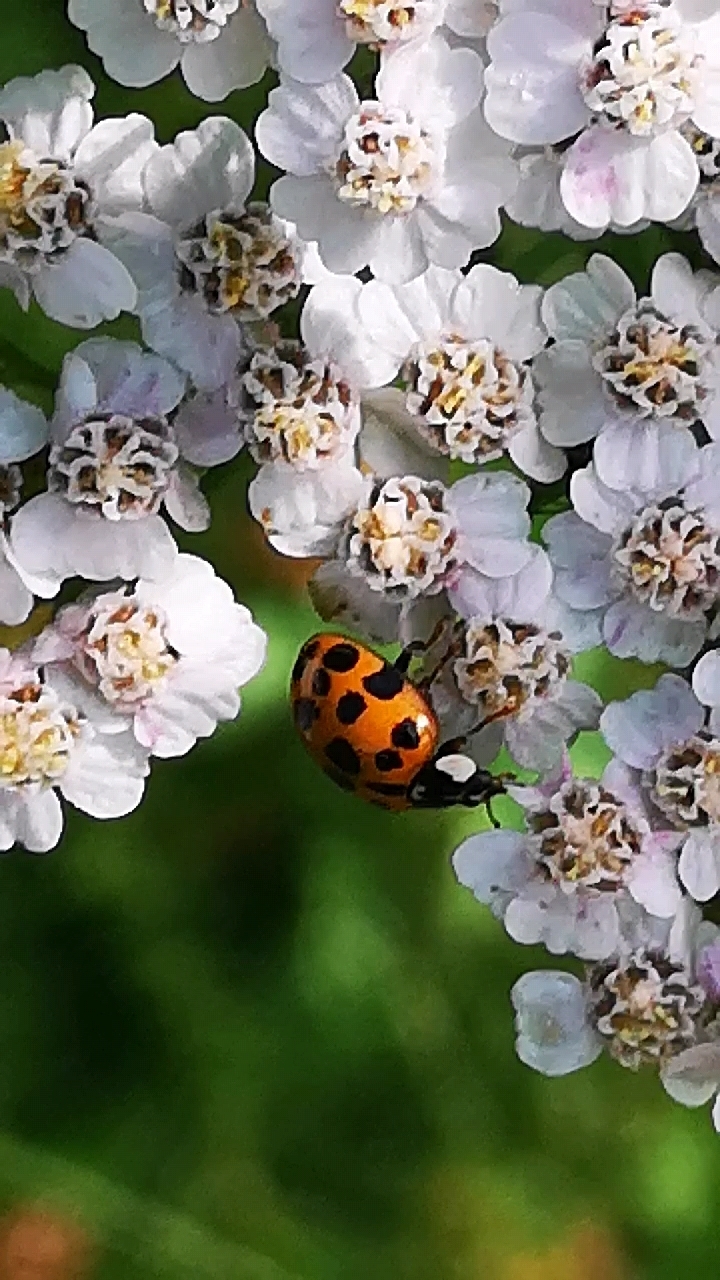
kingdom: Animalia
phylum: Arthropoda
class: Insecta
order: Coleoptera
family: Coccinellidae
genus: Harmonia
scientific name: Harmonia axyridis
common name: Harlequin ladybird
